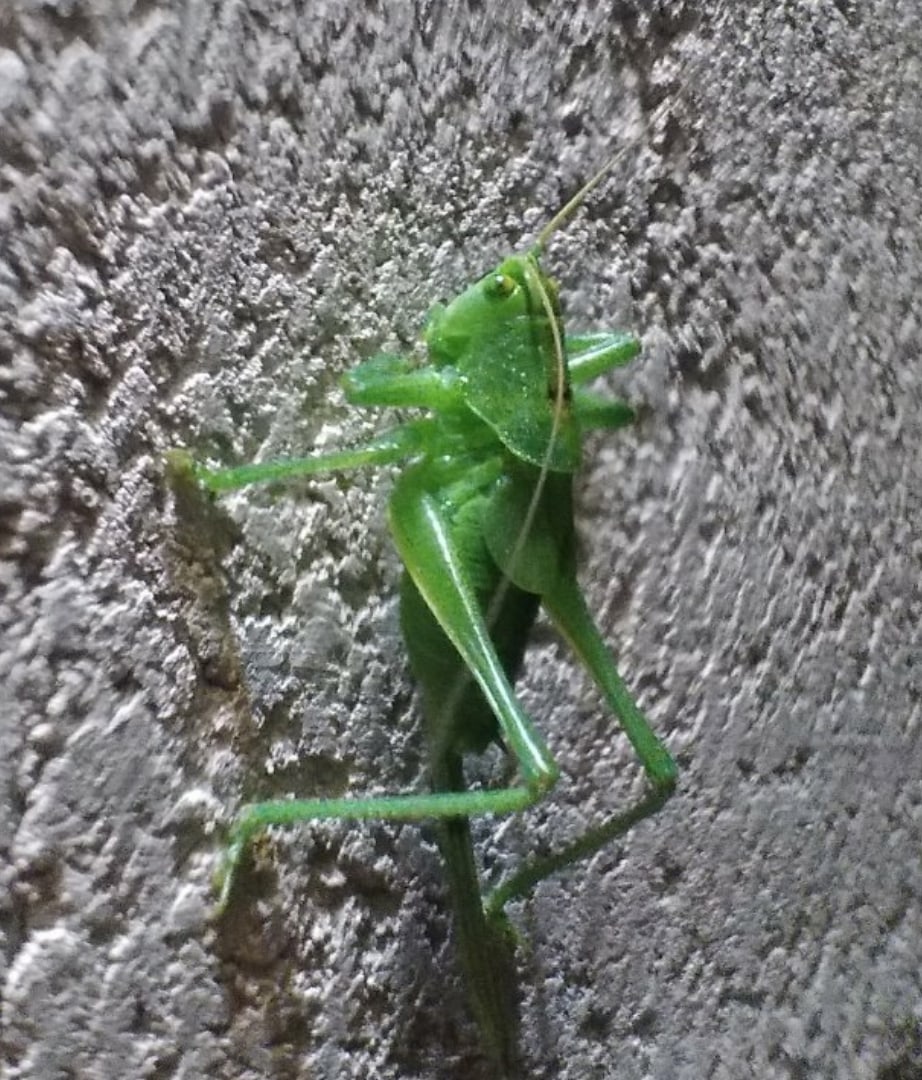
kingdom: Animalia
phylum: Arthropoda
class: Insecta
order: Orthoptera
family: Tettigoniidae
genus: Tettigonia
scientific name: Tettigonia cantans
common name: Upland green bush-cricket
